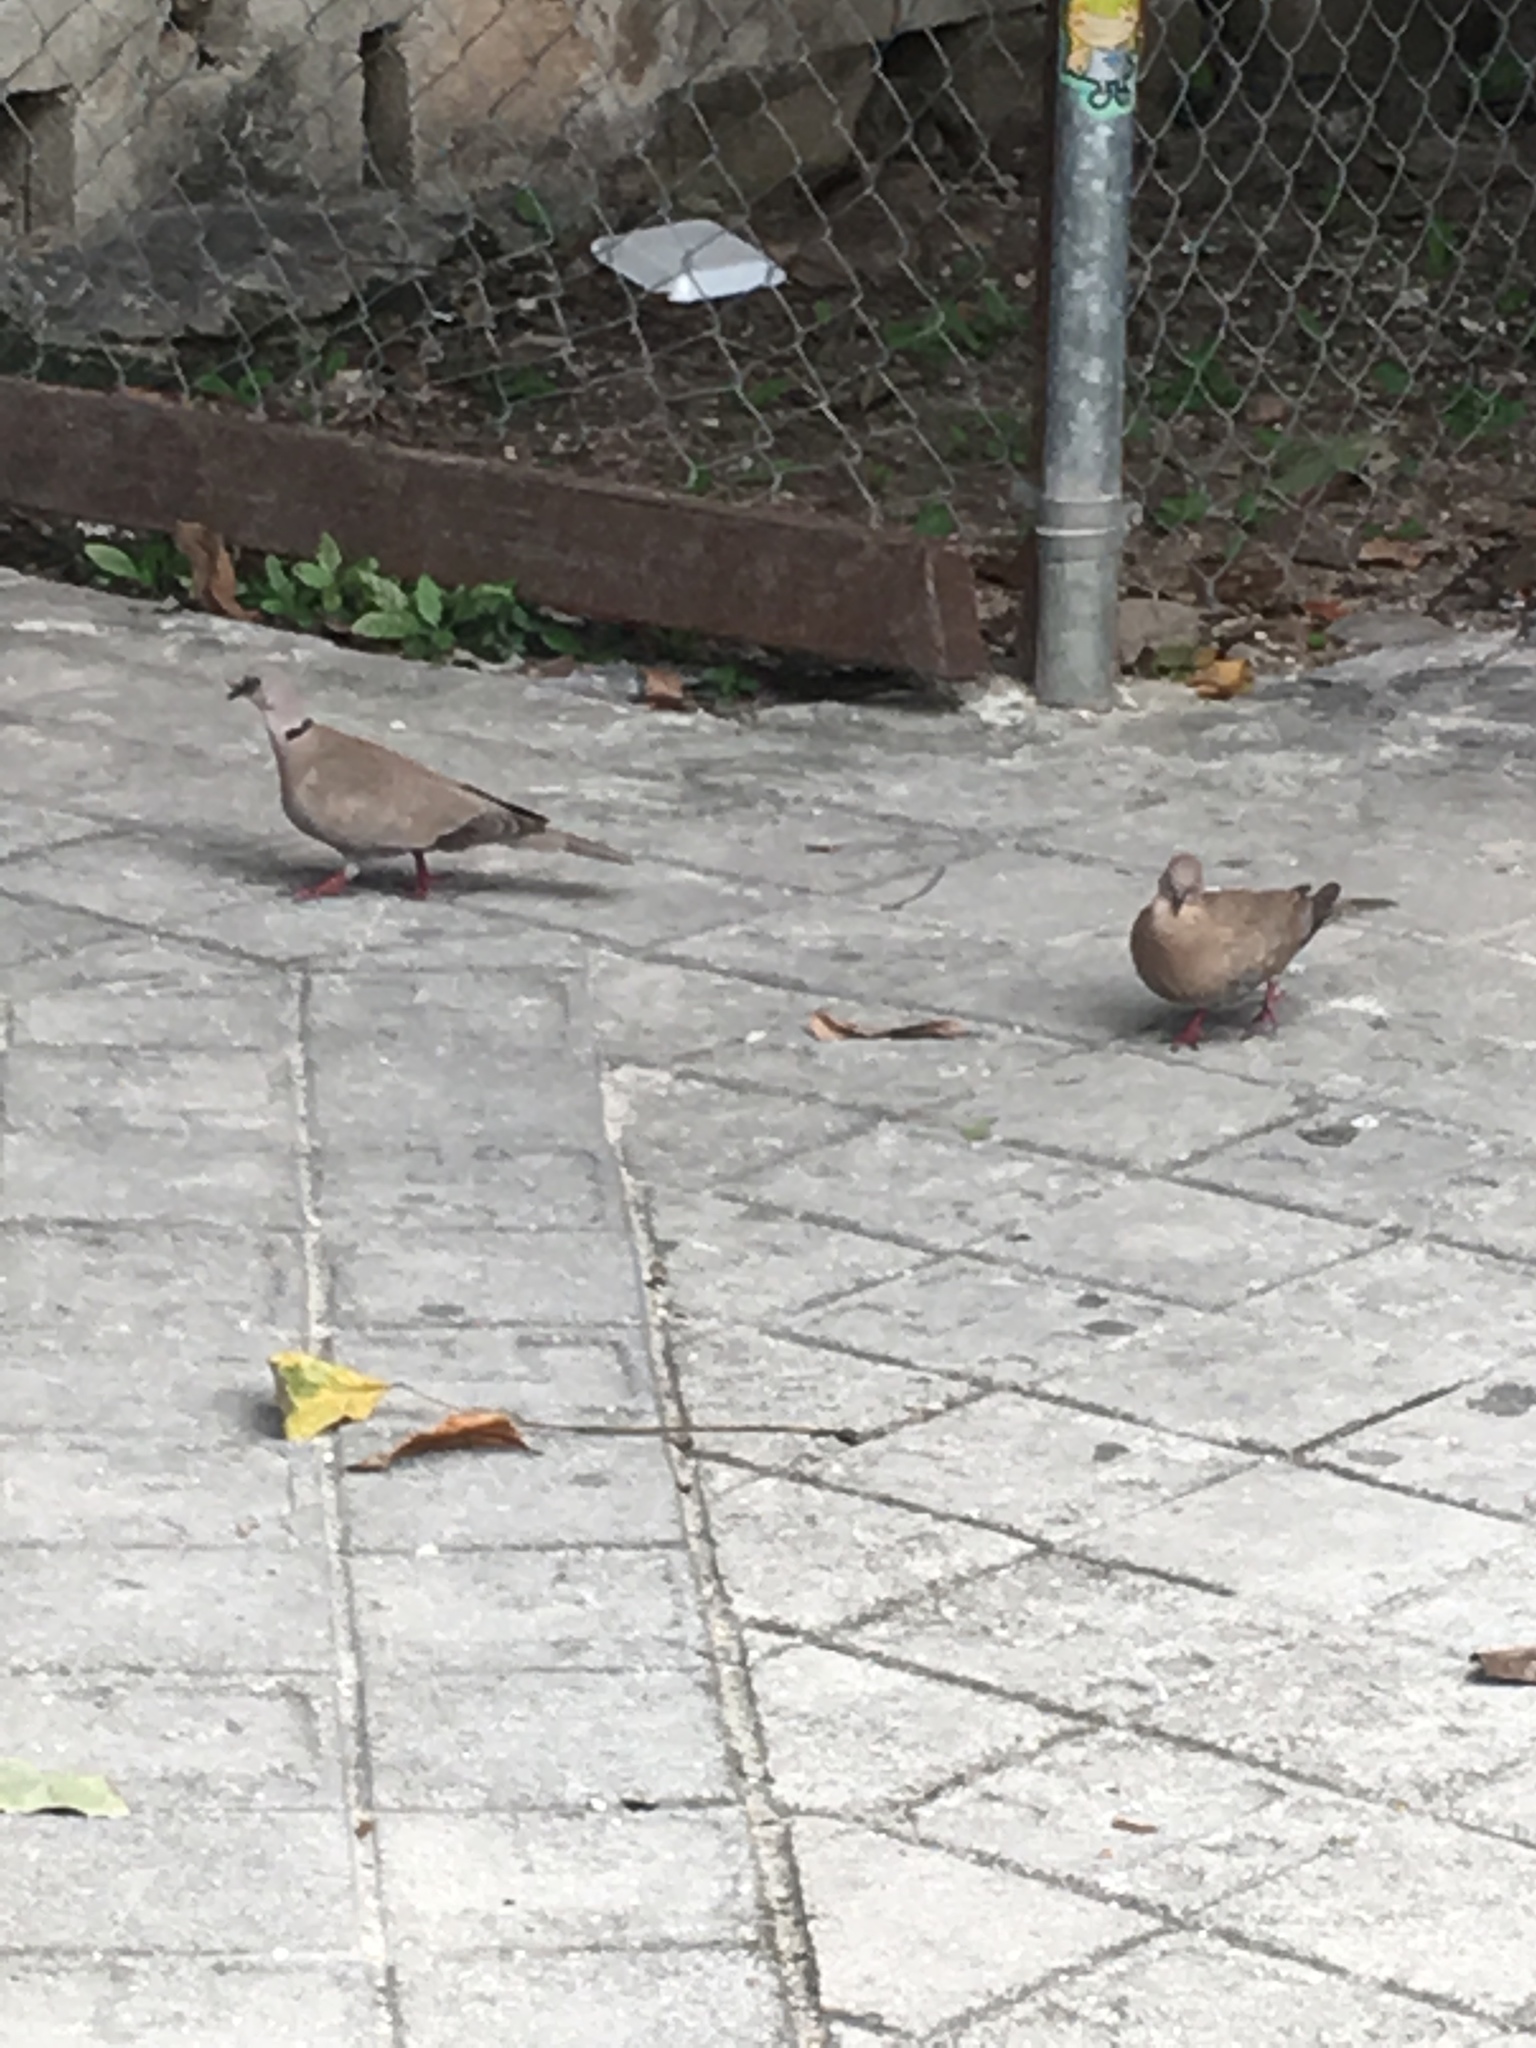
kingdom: Animalia
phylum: Chordata
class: Aves
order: Columbiformes
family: Columbidae
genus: Streptopelia
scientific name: Streptopelia decaocto
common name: Eurasian collared dove
